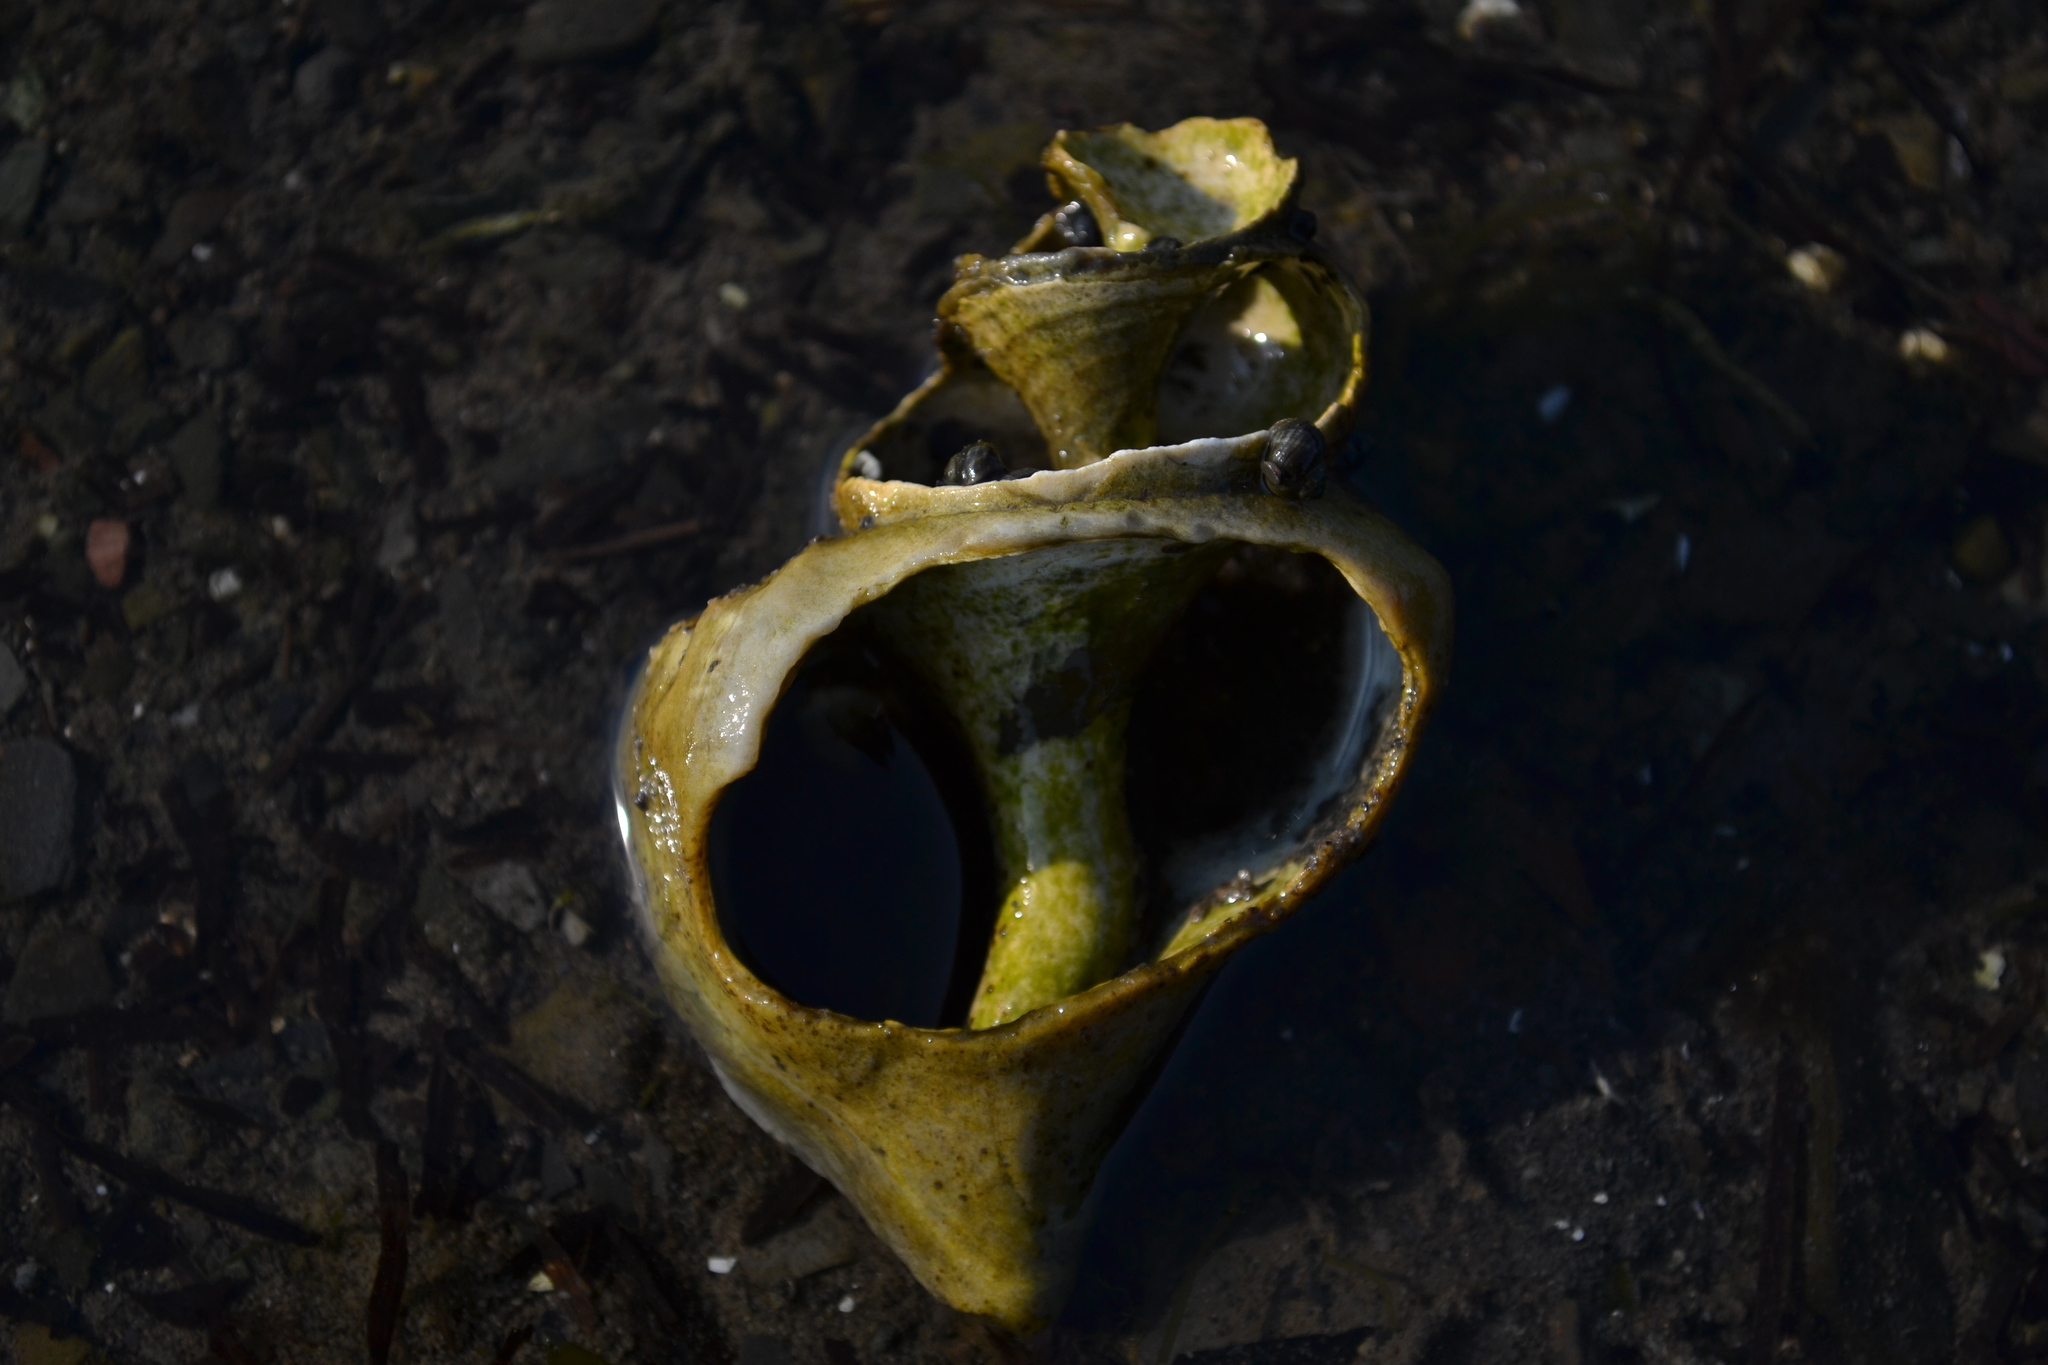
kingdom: Animalia
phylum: Mollusca
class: Gastropoda
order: Neogastropoda
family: Buccinidae
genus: Neptunea
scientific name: Neptunea despecta
